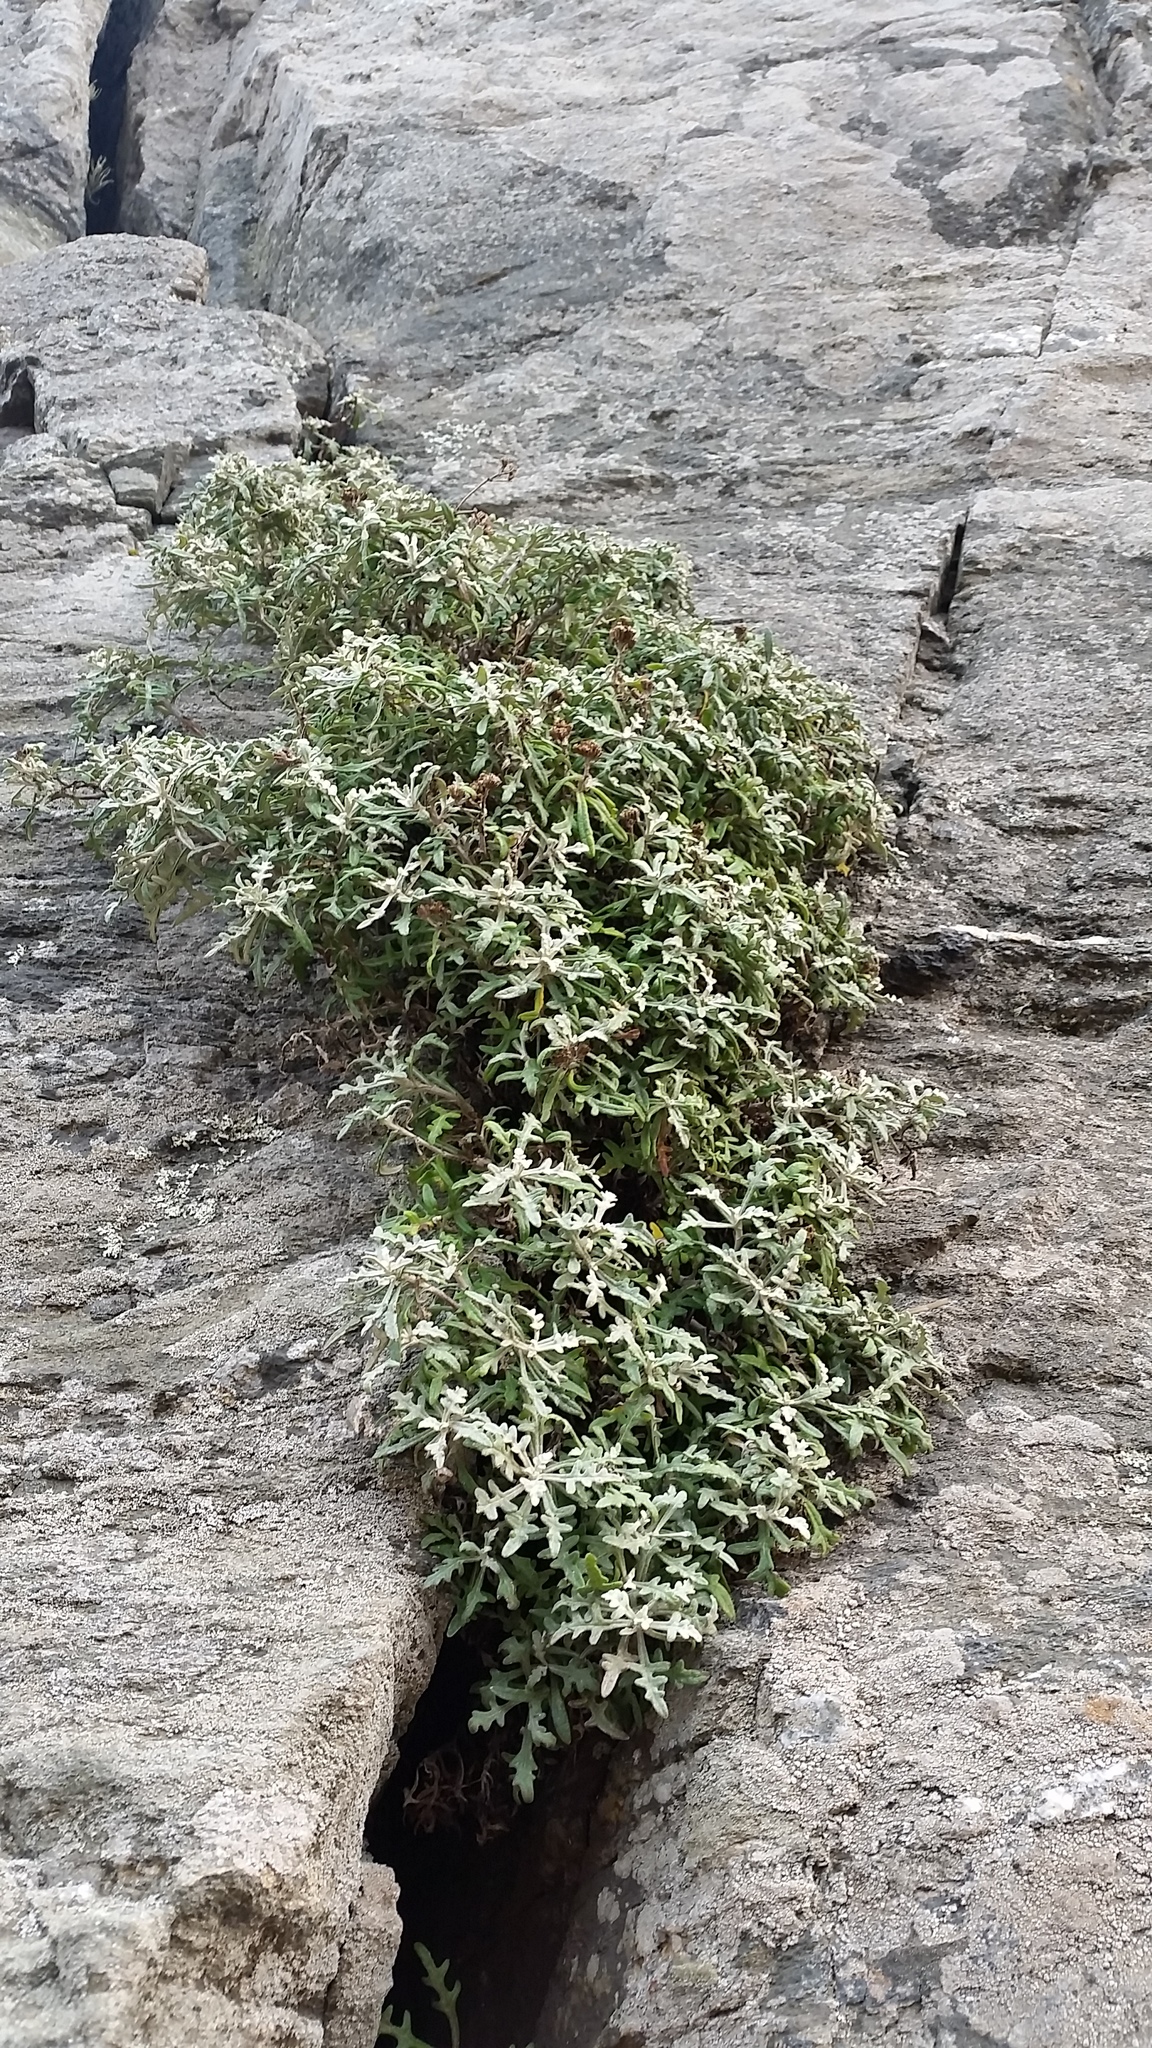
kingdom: Plantae
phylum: Tracheophyta
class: Magnoliopsida
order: Asterales
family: Asteraceae
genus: Eriophyllum
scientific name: Eriophyllum staechadifolium
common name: Lizardtail
